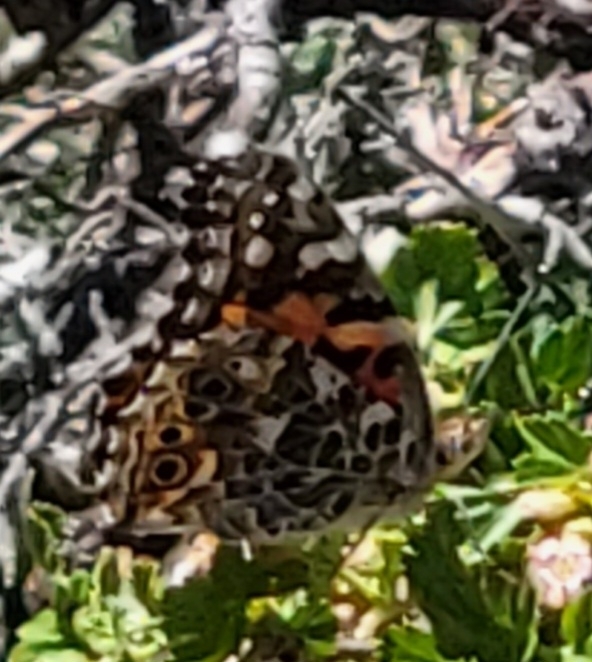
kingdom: Animalia
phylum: Arthropoda
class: Insecta
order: Lepidoptera
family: Nymphalidae
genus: Vanessa
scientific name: Vanessa cardui
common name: Painted lady
